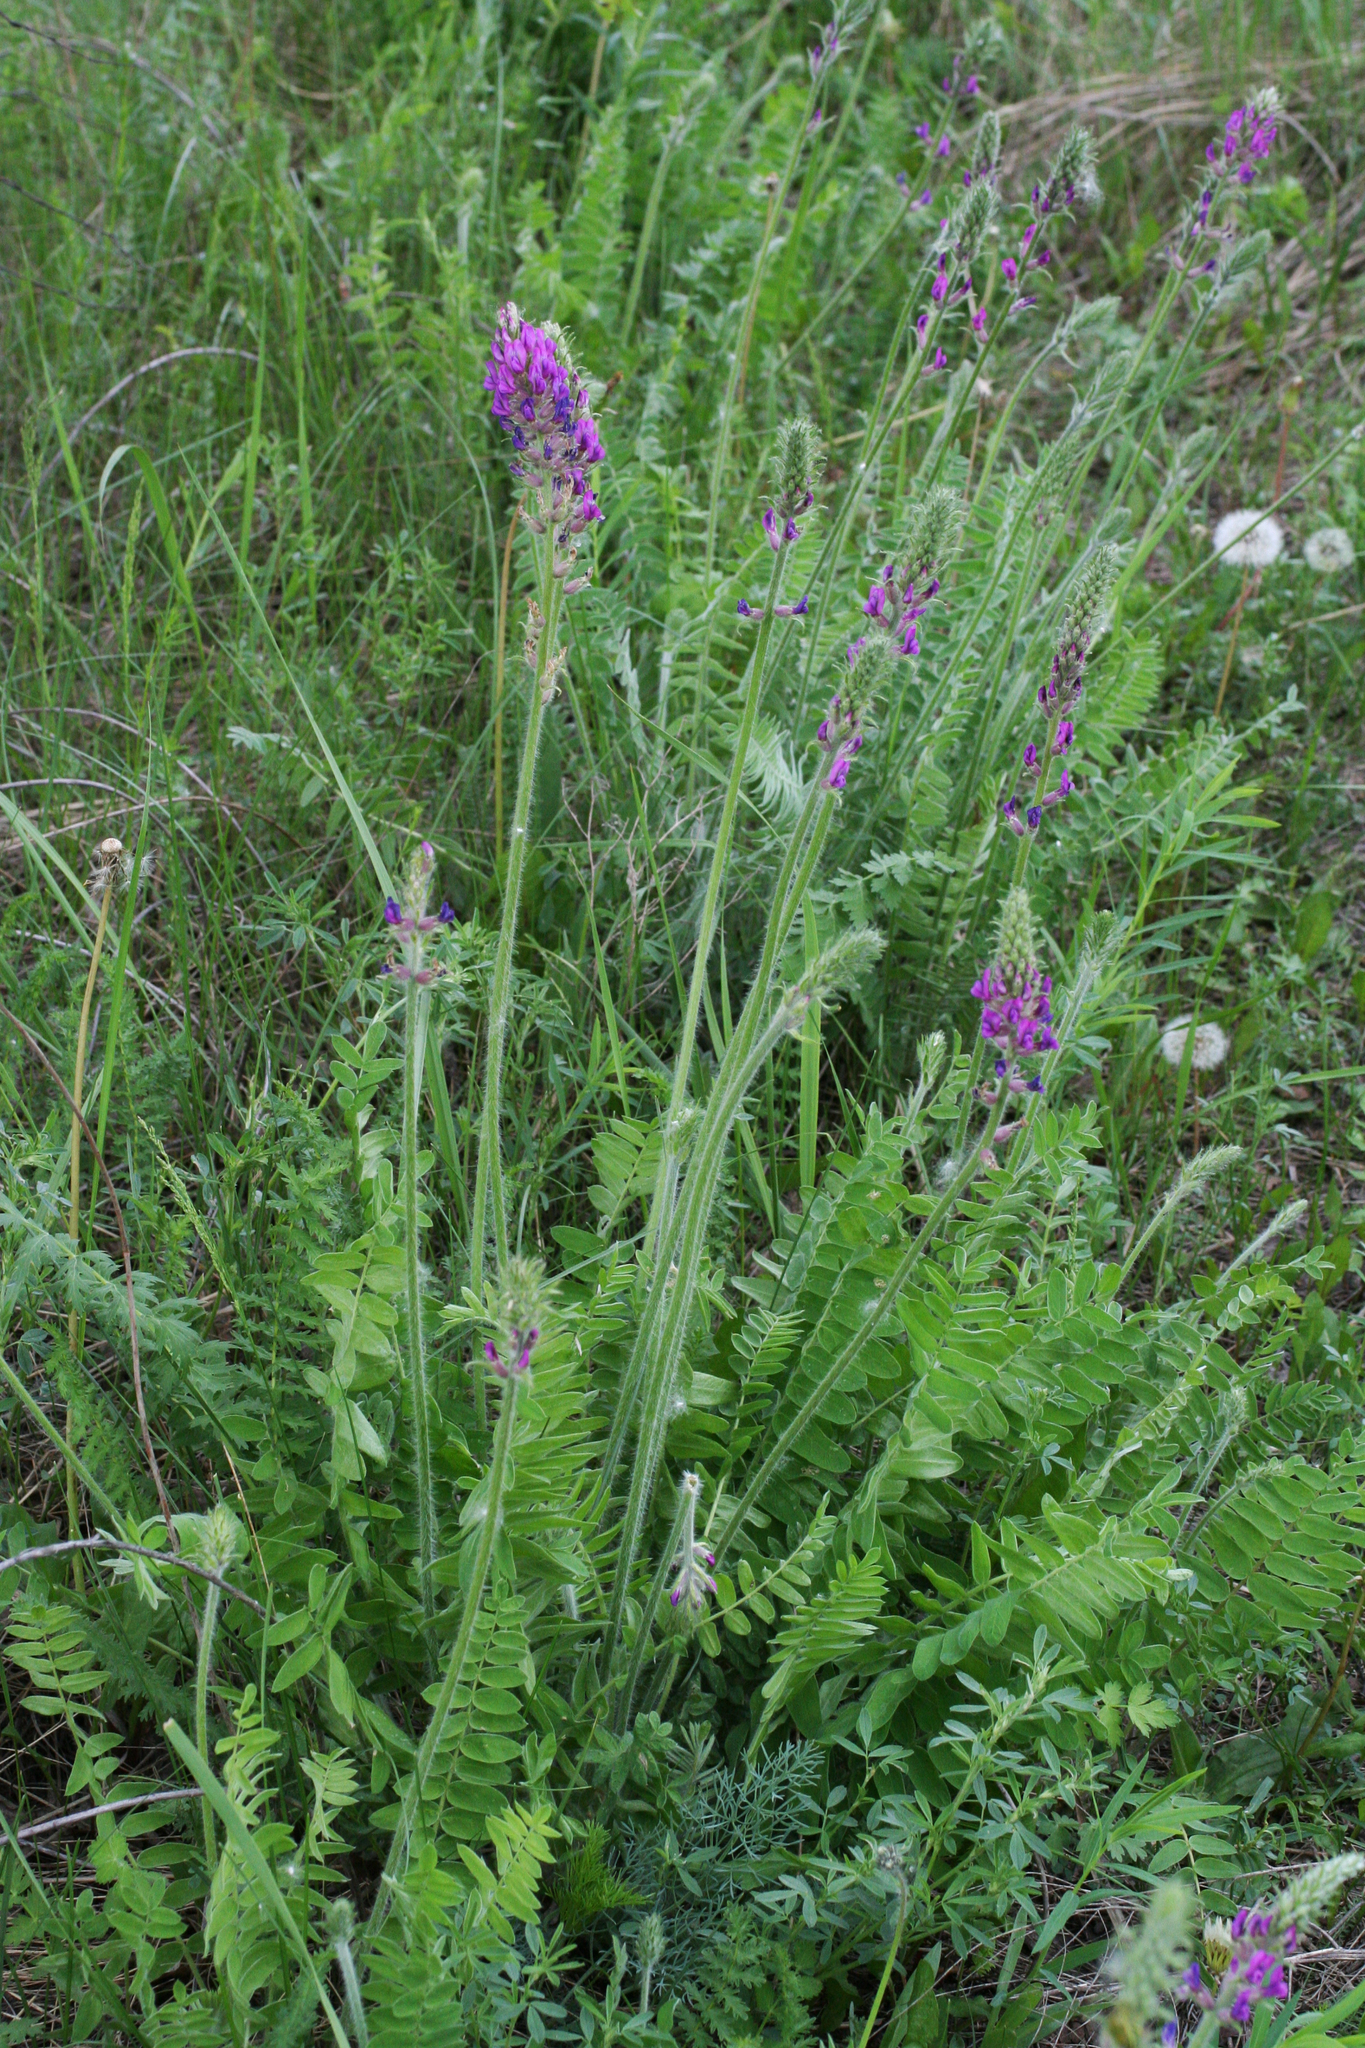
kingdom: Plantae
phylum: Tracheophyta
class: Magnoliopsida
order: Fabales
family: Fabaceae
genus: Oxytropis
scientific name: Oxytropis campanulata
